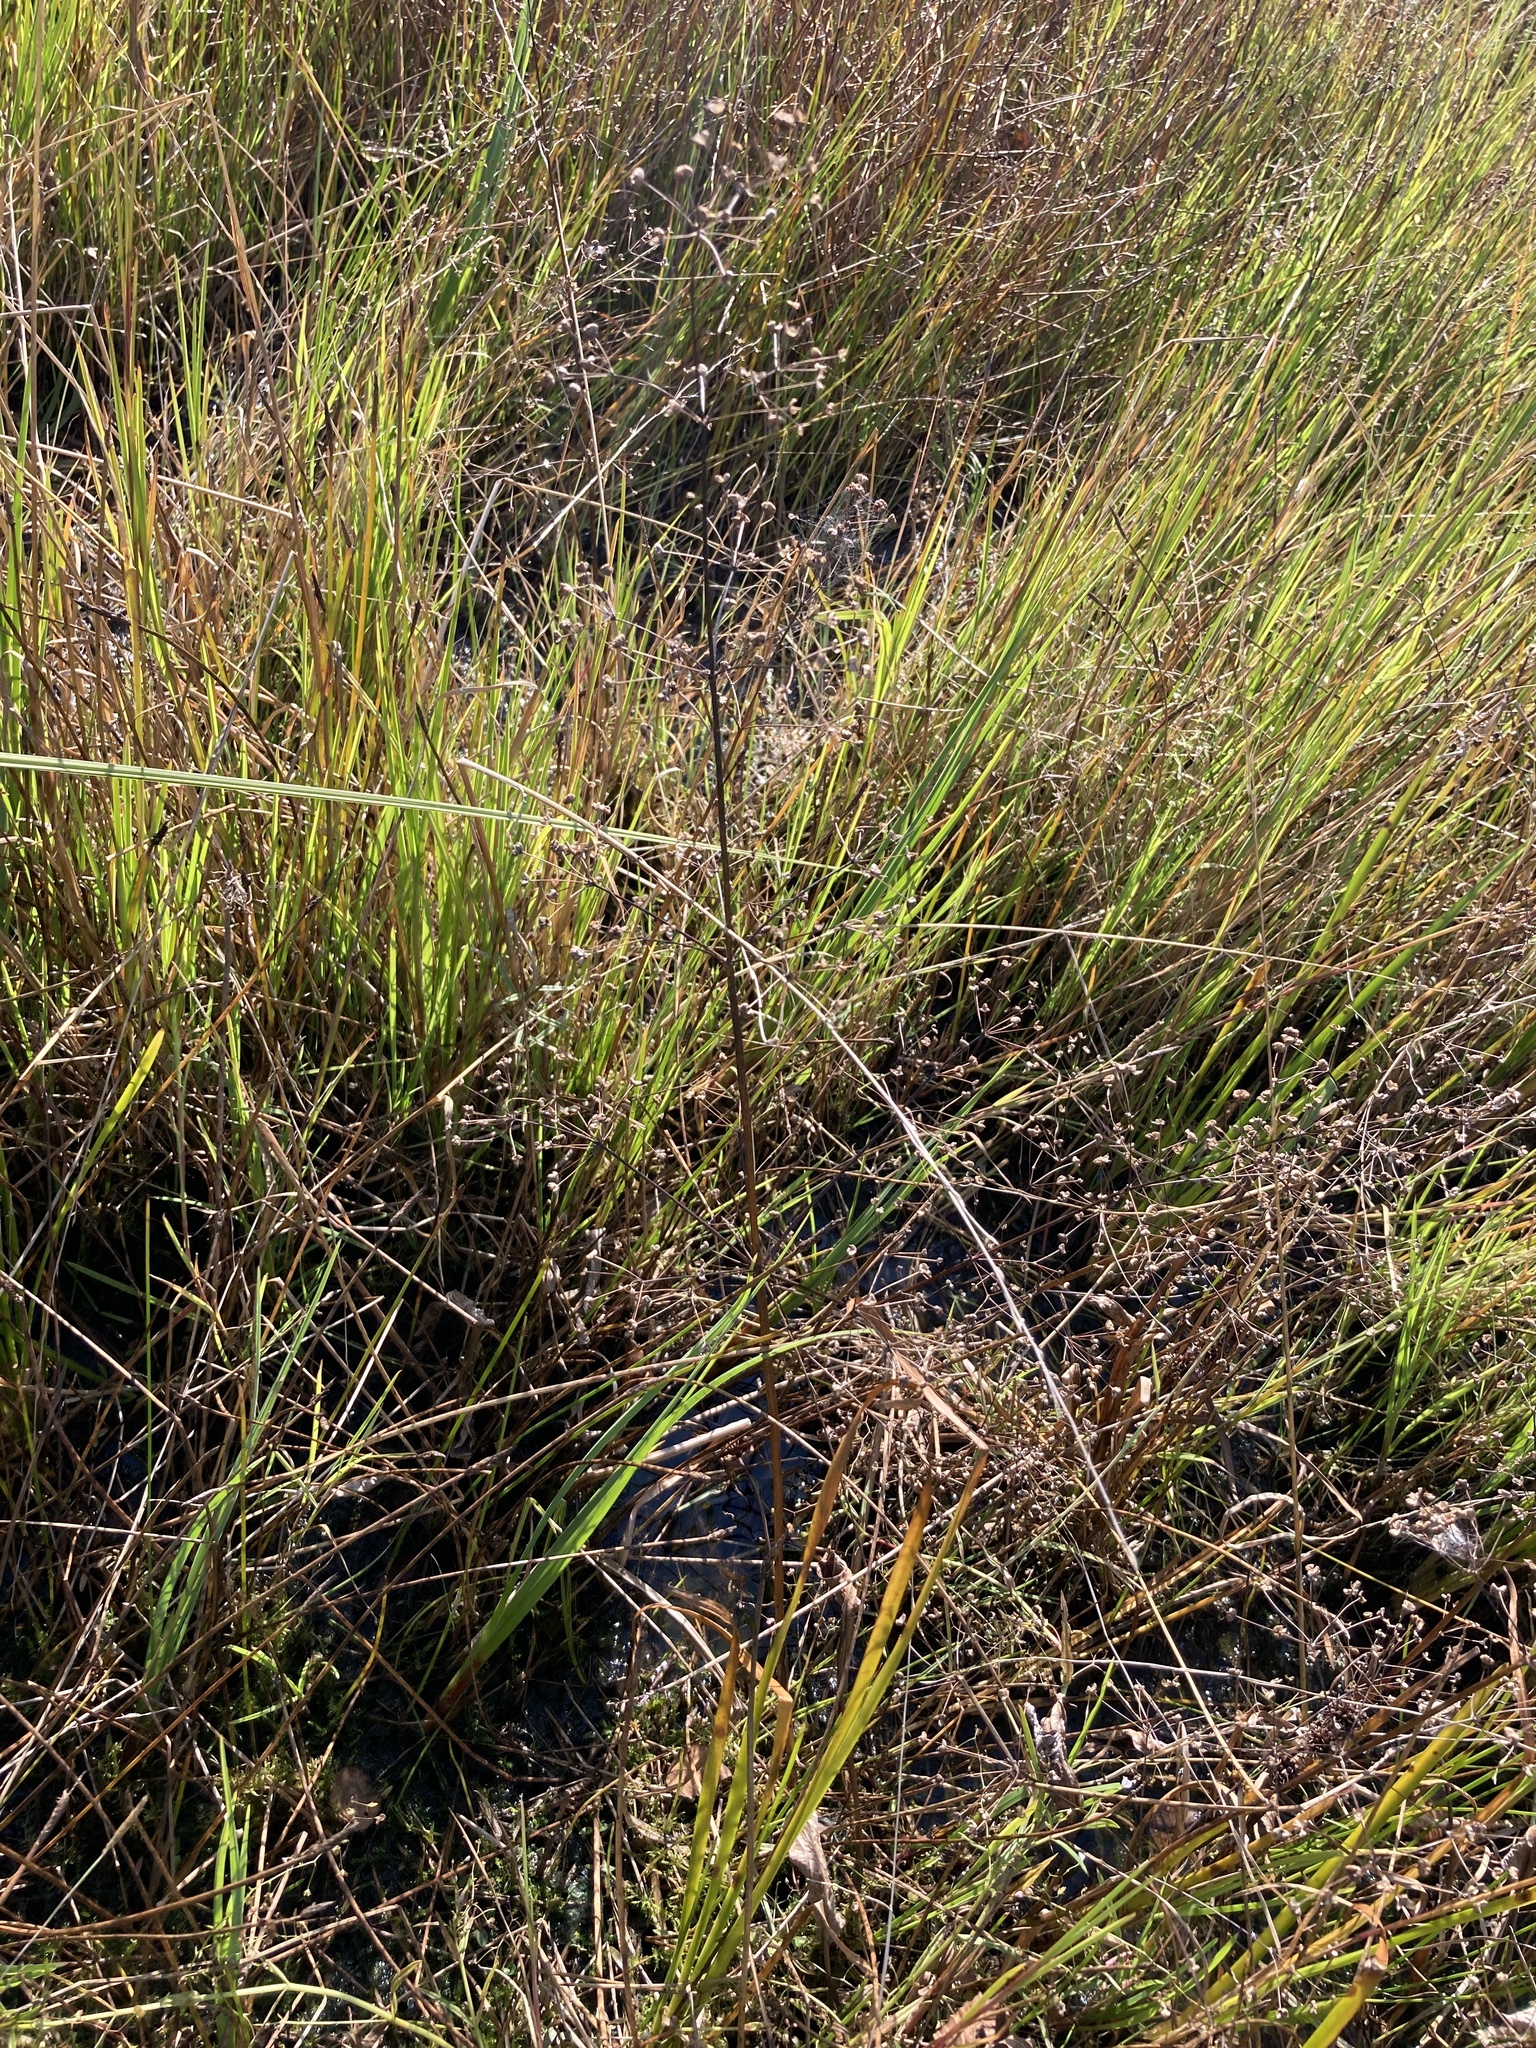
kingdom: Plantae
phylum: Tracheophyta
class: Liliopsida
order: Alismatales
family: Alismataceae
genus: Alisma
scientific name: Alisma plantago-aquatica
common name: Water-plantain
